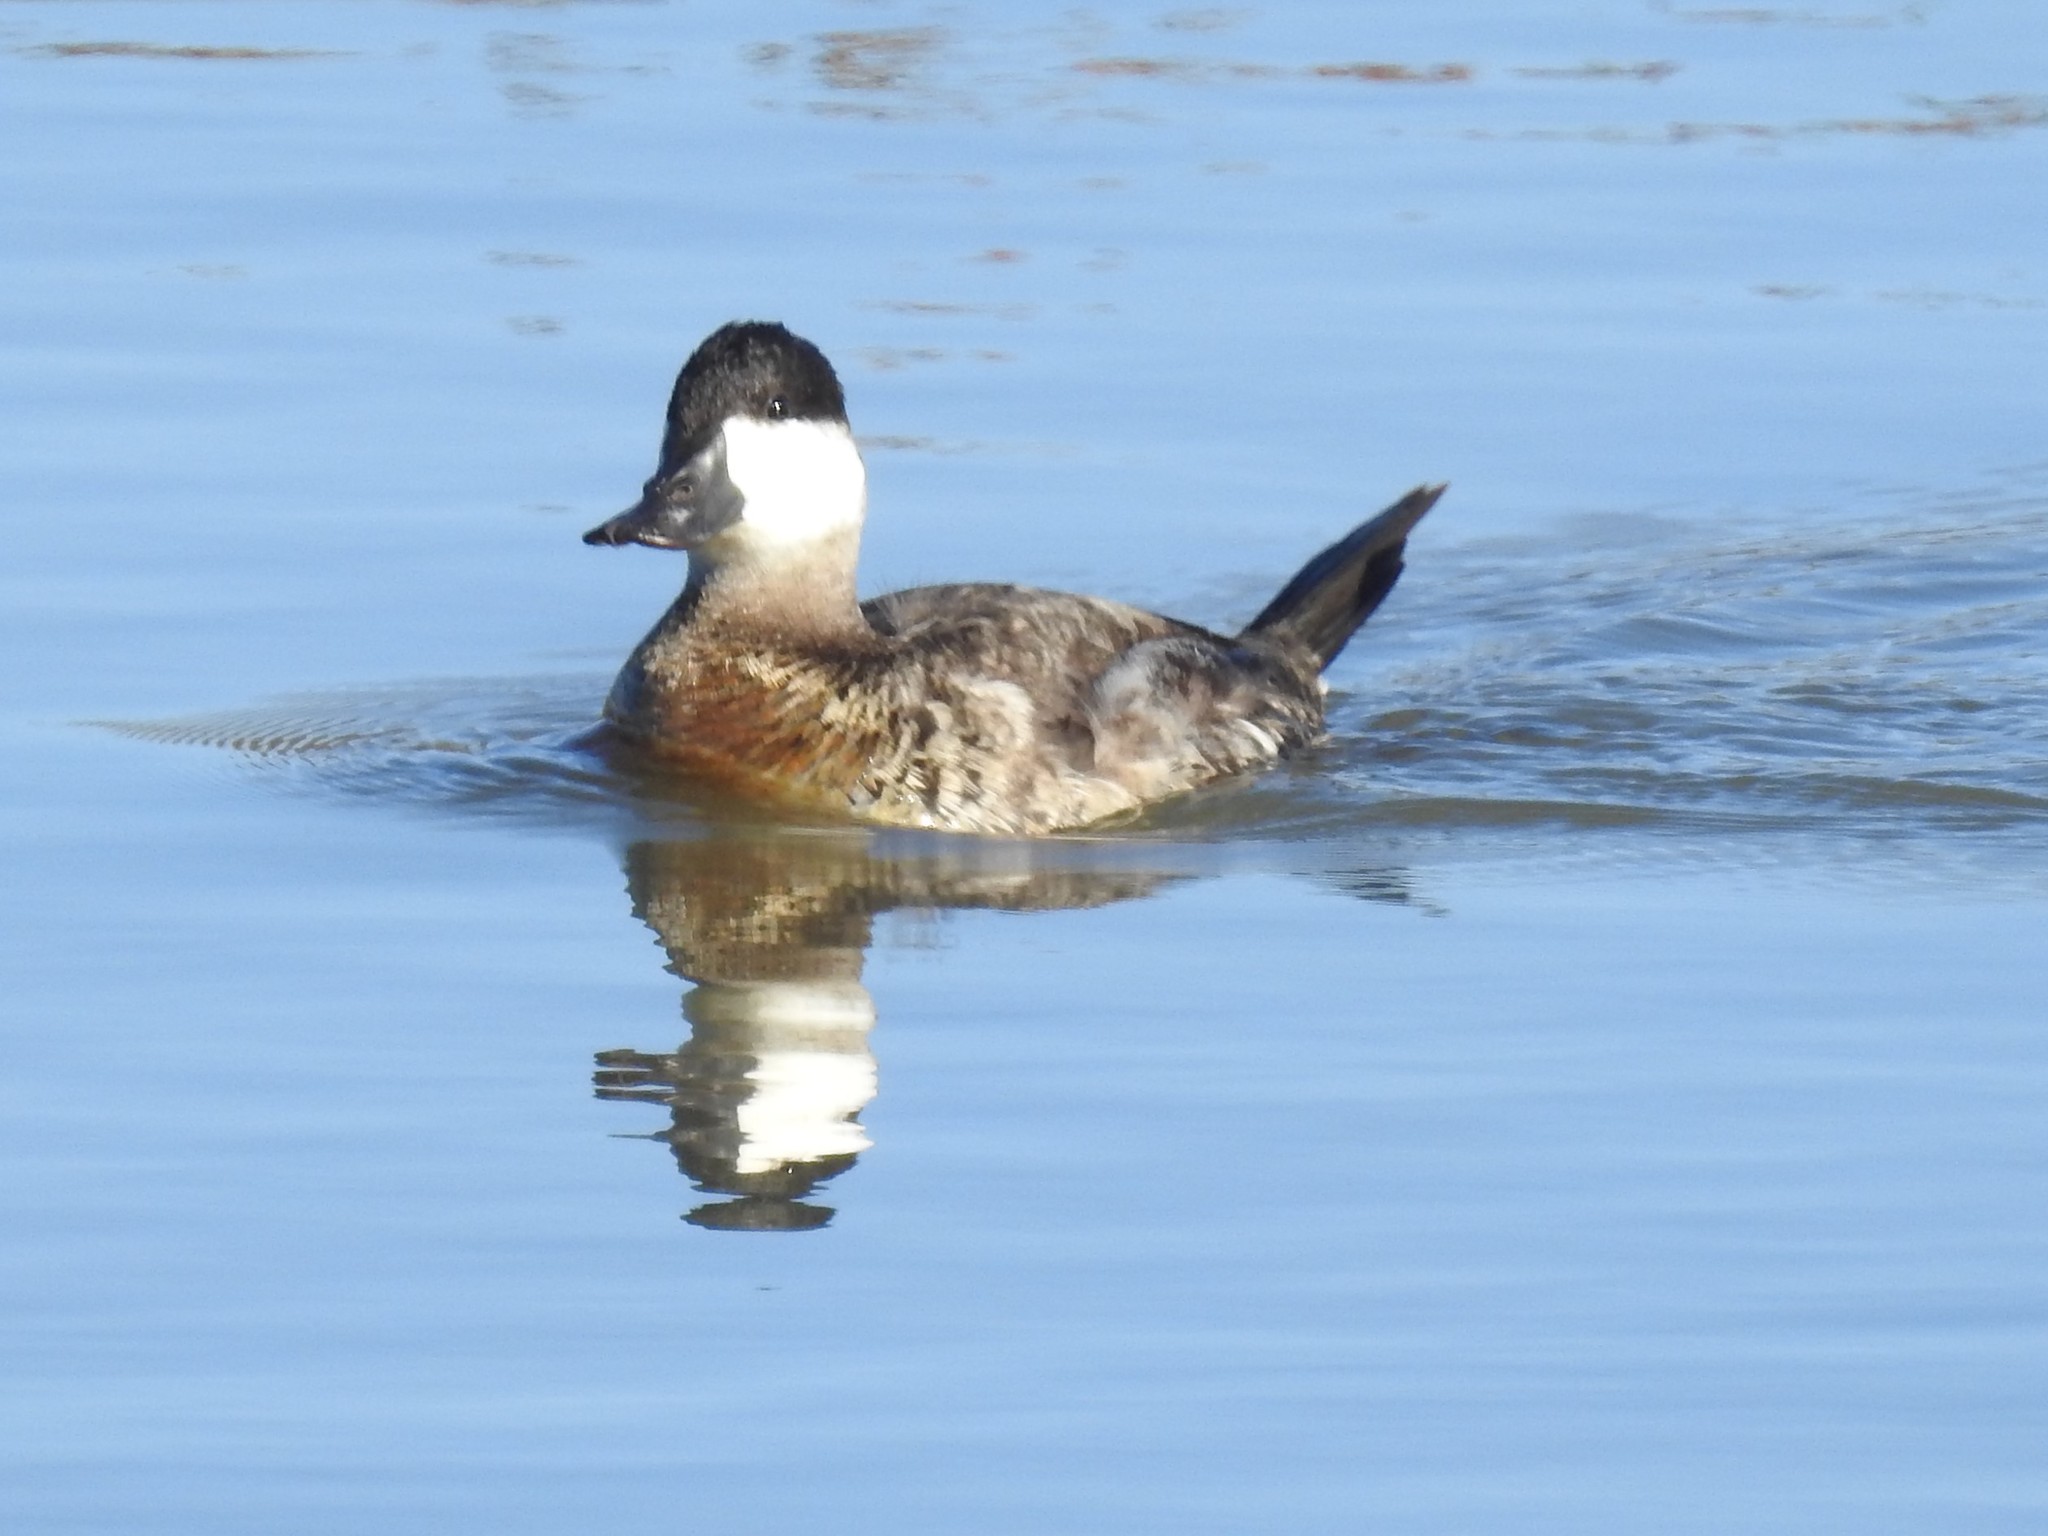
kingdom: Animalia
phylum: Chordata
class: Aves
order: Anseriformes
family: Anatidae
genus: Oxyura
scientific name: Oxyura jamaicensis
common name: Ruddy duck
